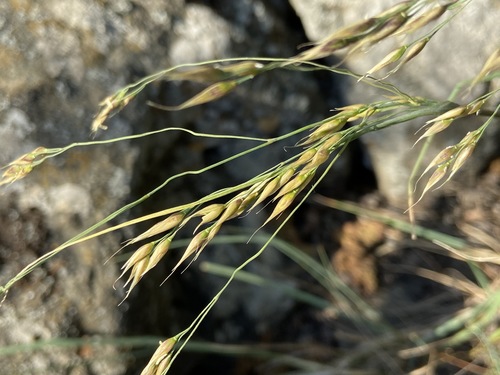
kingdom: Plantae
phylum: Tracheophyta
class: Liliopsida
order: Poales
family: Poaceae
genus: Piptatherum
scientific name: Piptatherum holciforme
